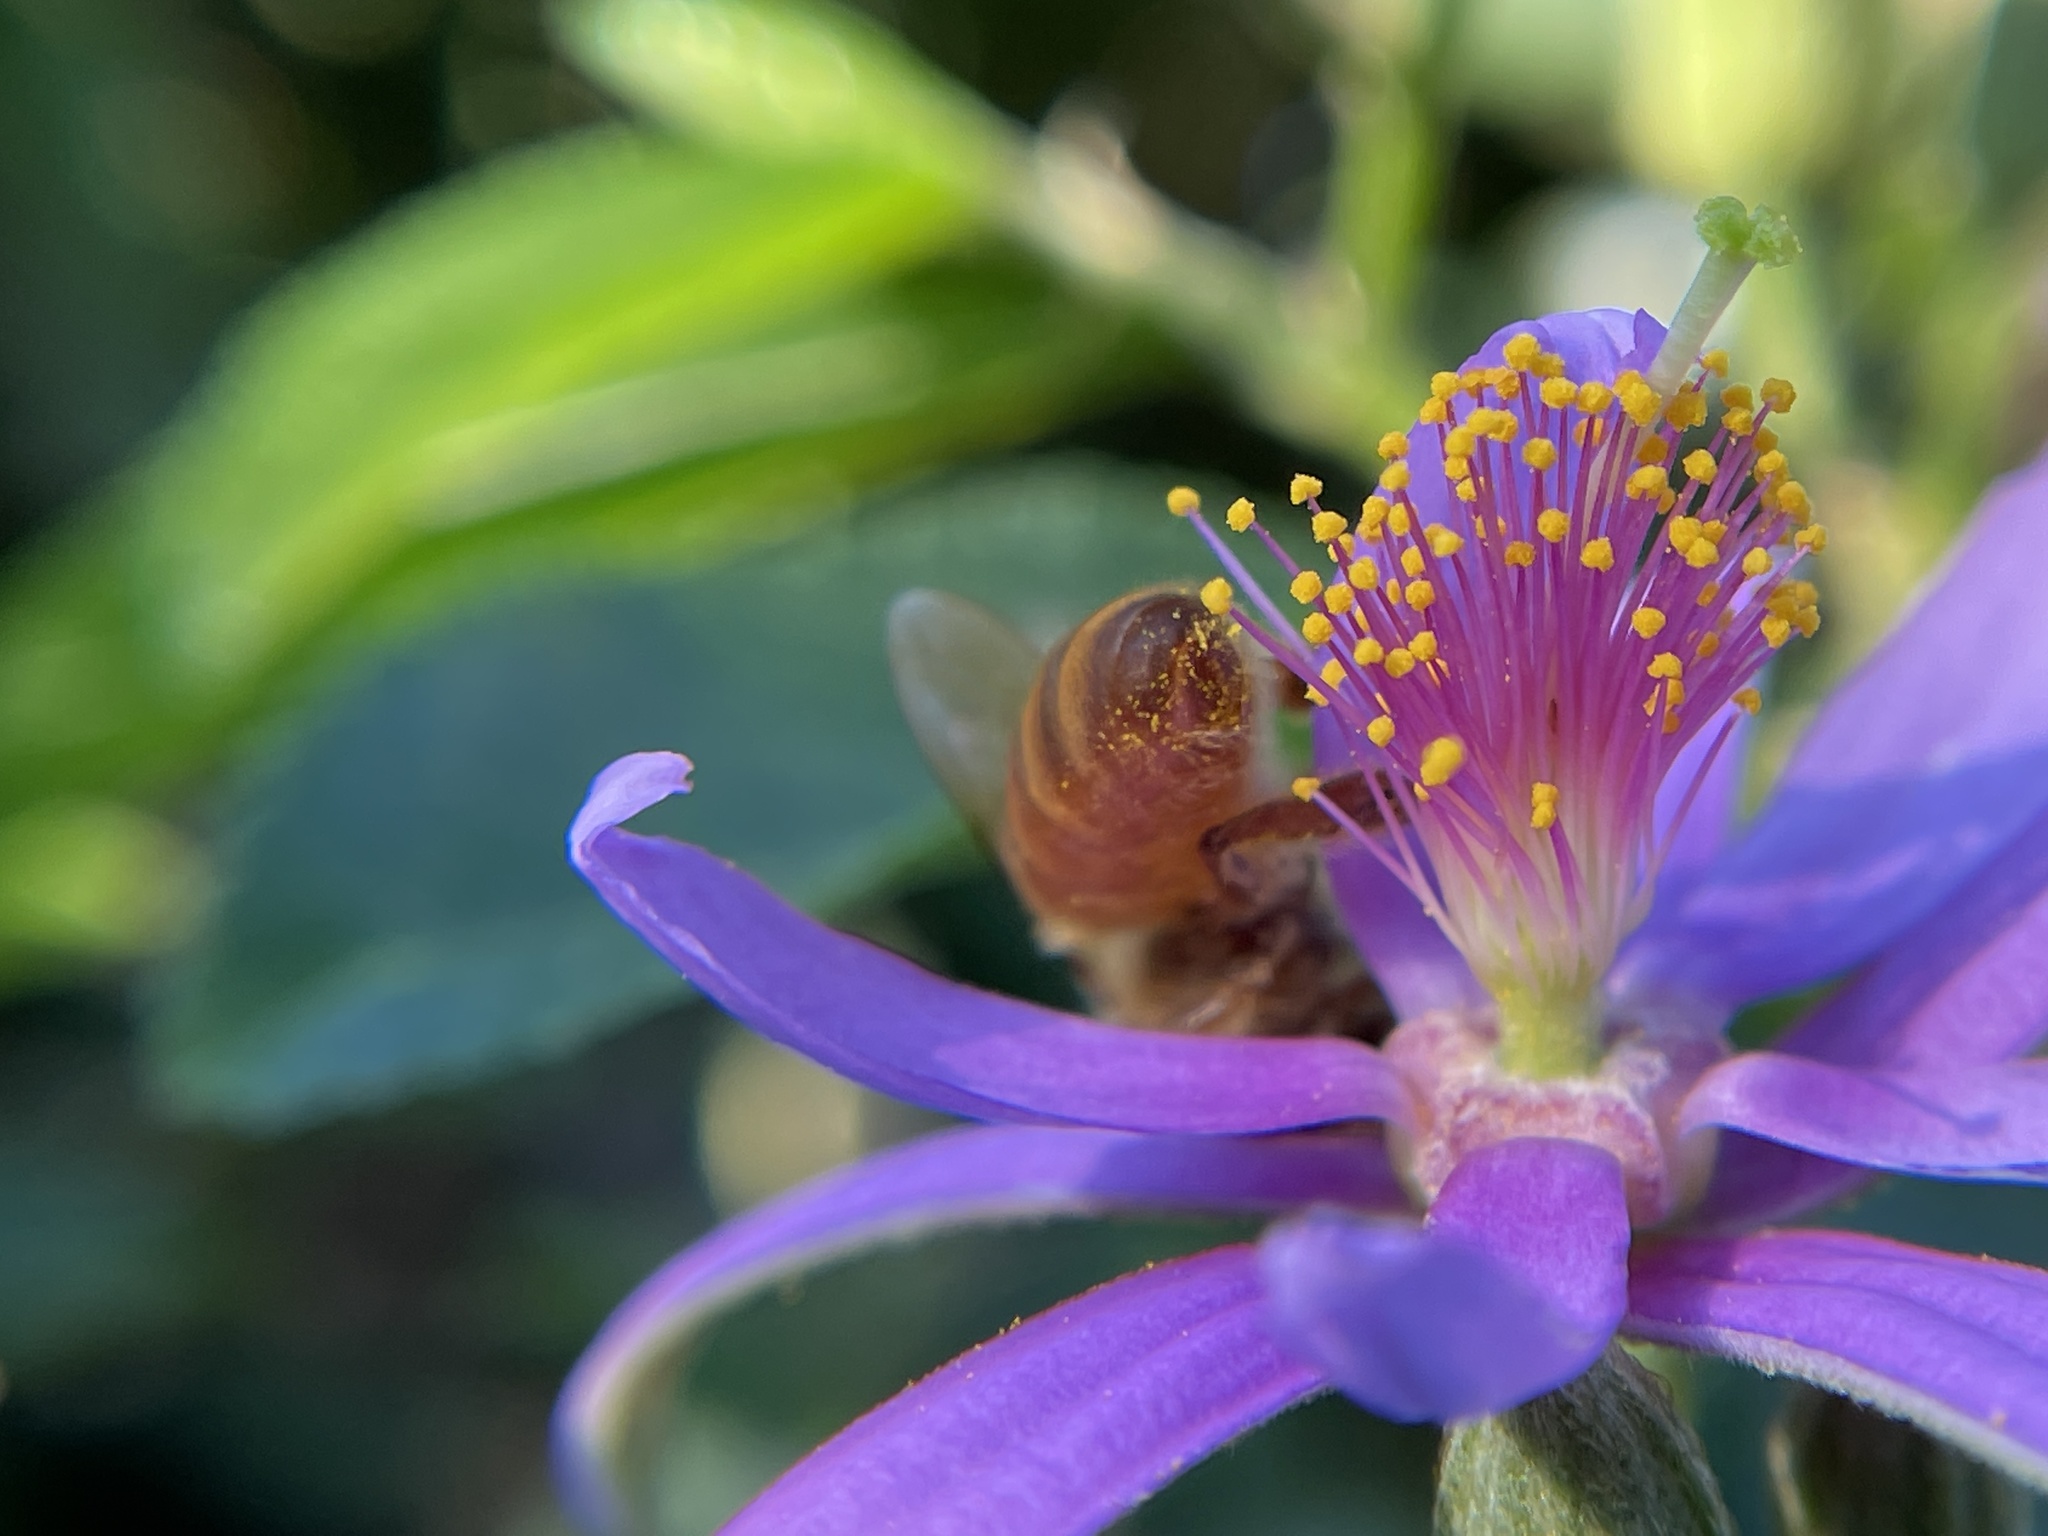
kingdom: Animalia
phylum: Arthropoda
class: Insecta
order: Hymenoptera
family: Apidae
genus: Apis
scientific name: Apis mellifera
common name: Honey bee
